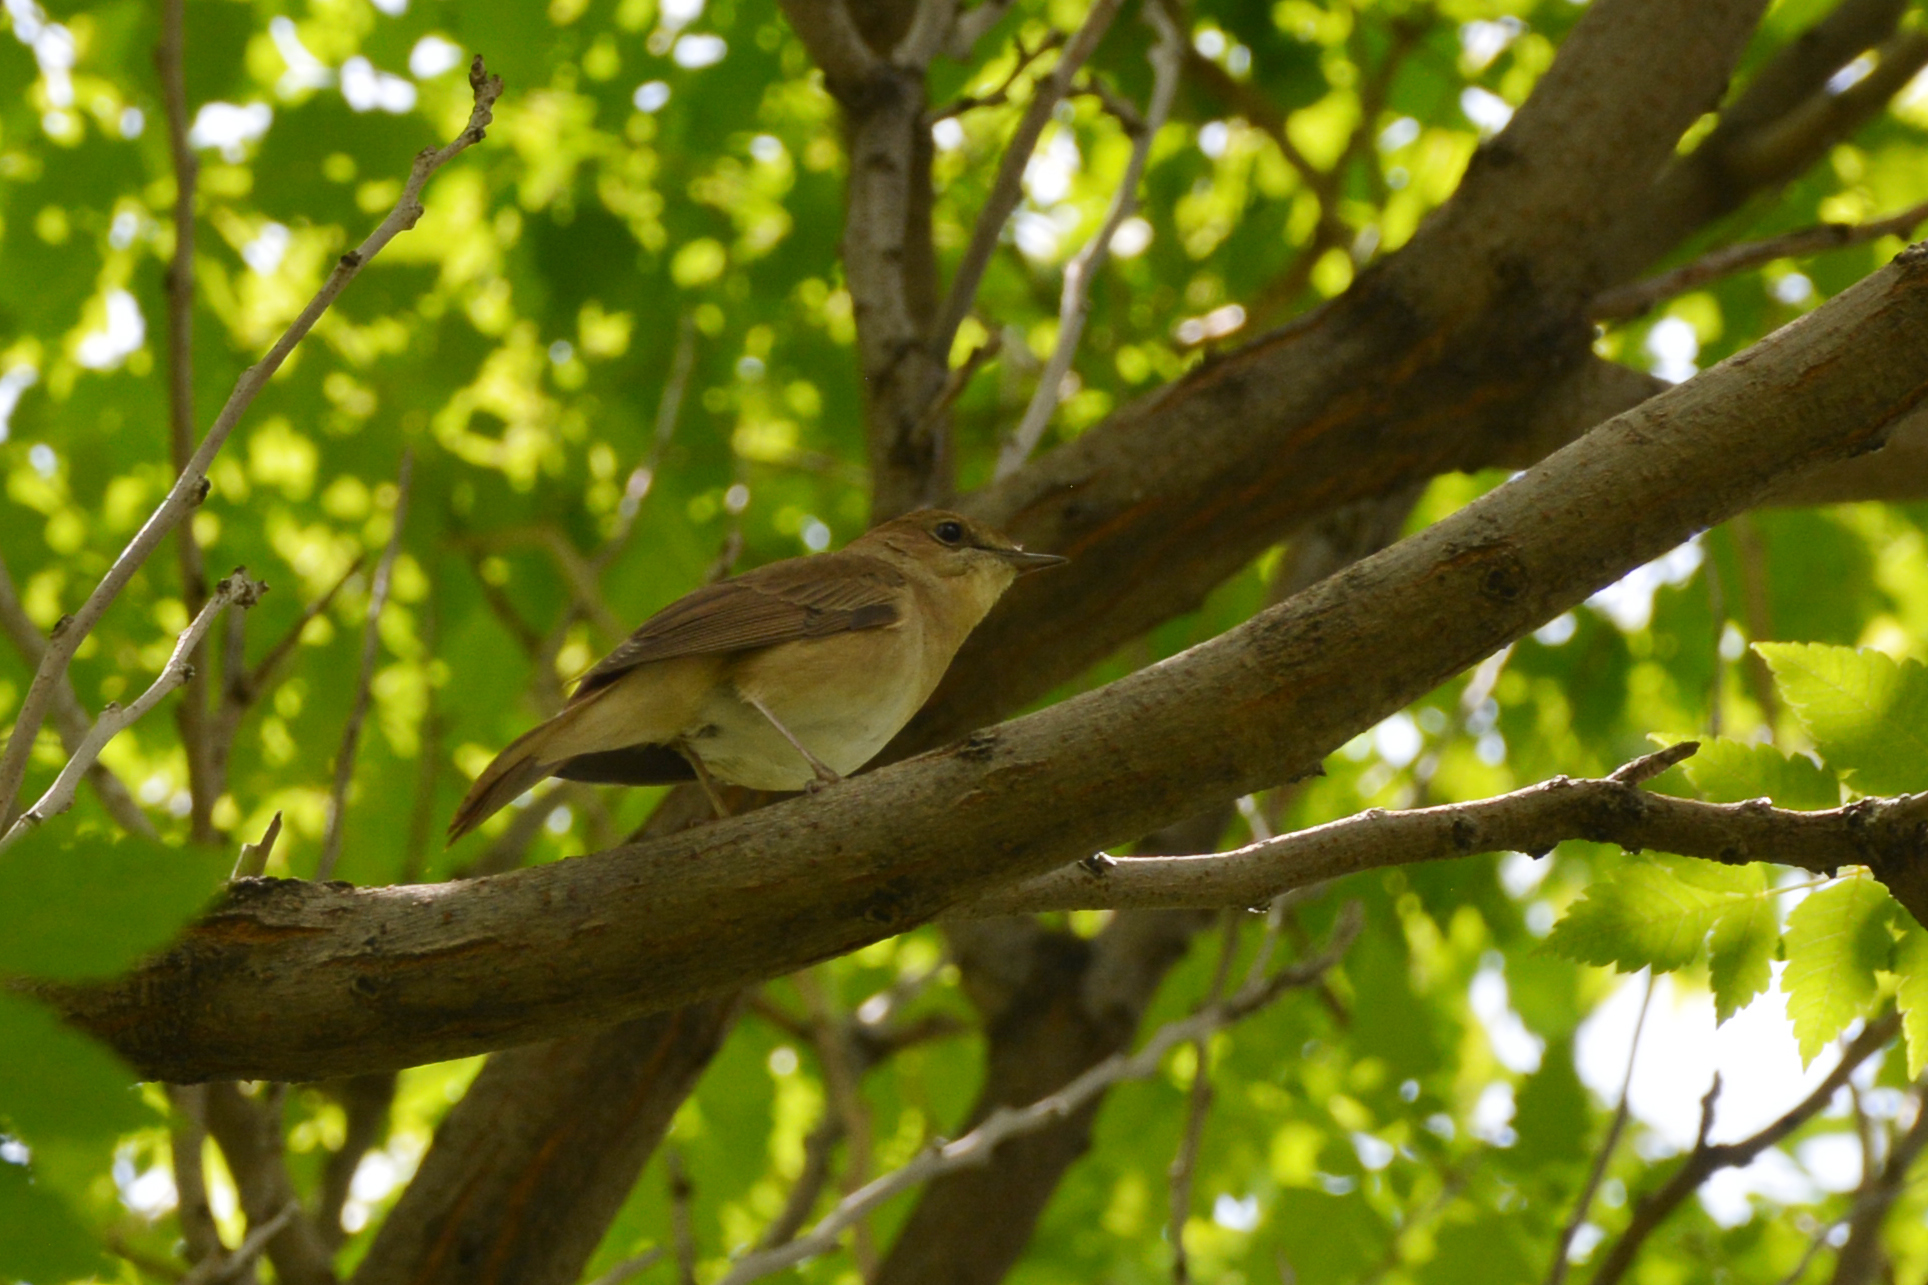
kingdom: Animalia
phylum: Chordata
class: Aves
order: Passeriformes
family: Muscicapidae
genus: Luscinia
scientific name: Luscinia megarhynchos
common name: Common nightingale
